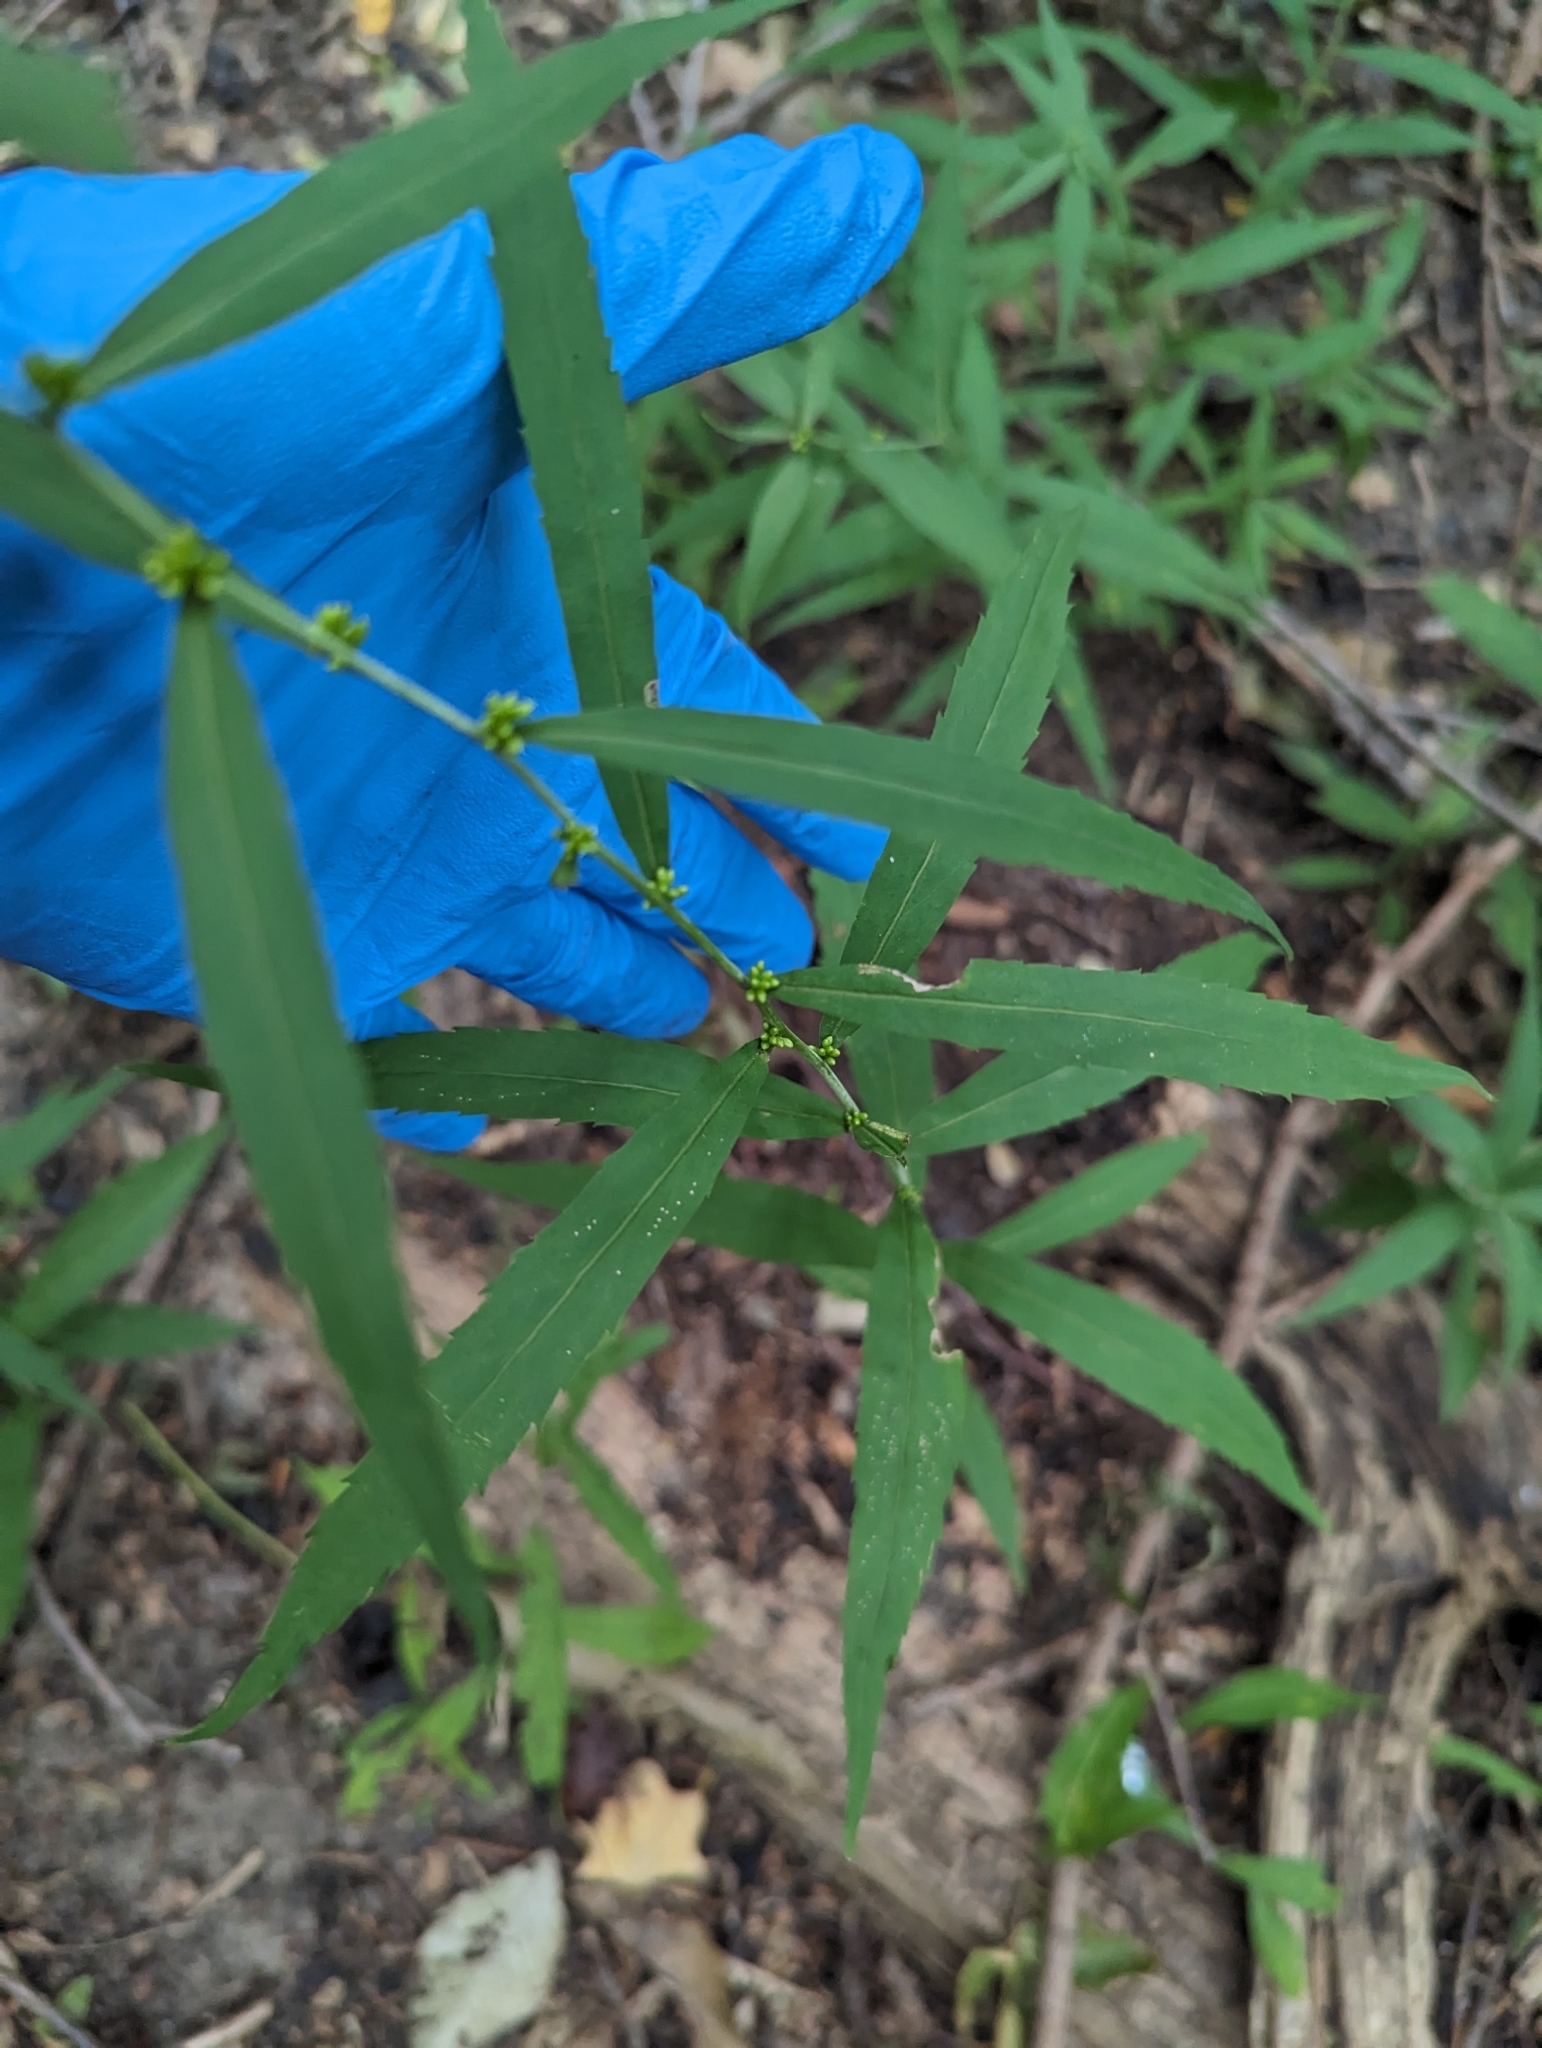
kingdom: Plantae
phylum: Tracheophyta
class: Magnoliopsida
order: Asterales
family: Asteraceae
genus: Solidago
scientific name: Solidago caesia
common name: Woodland goldenrod
